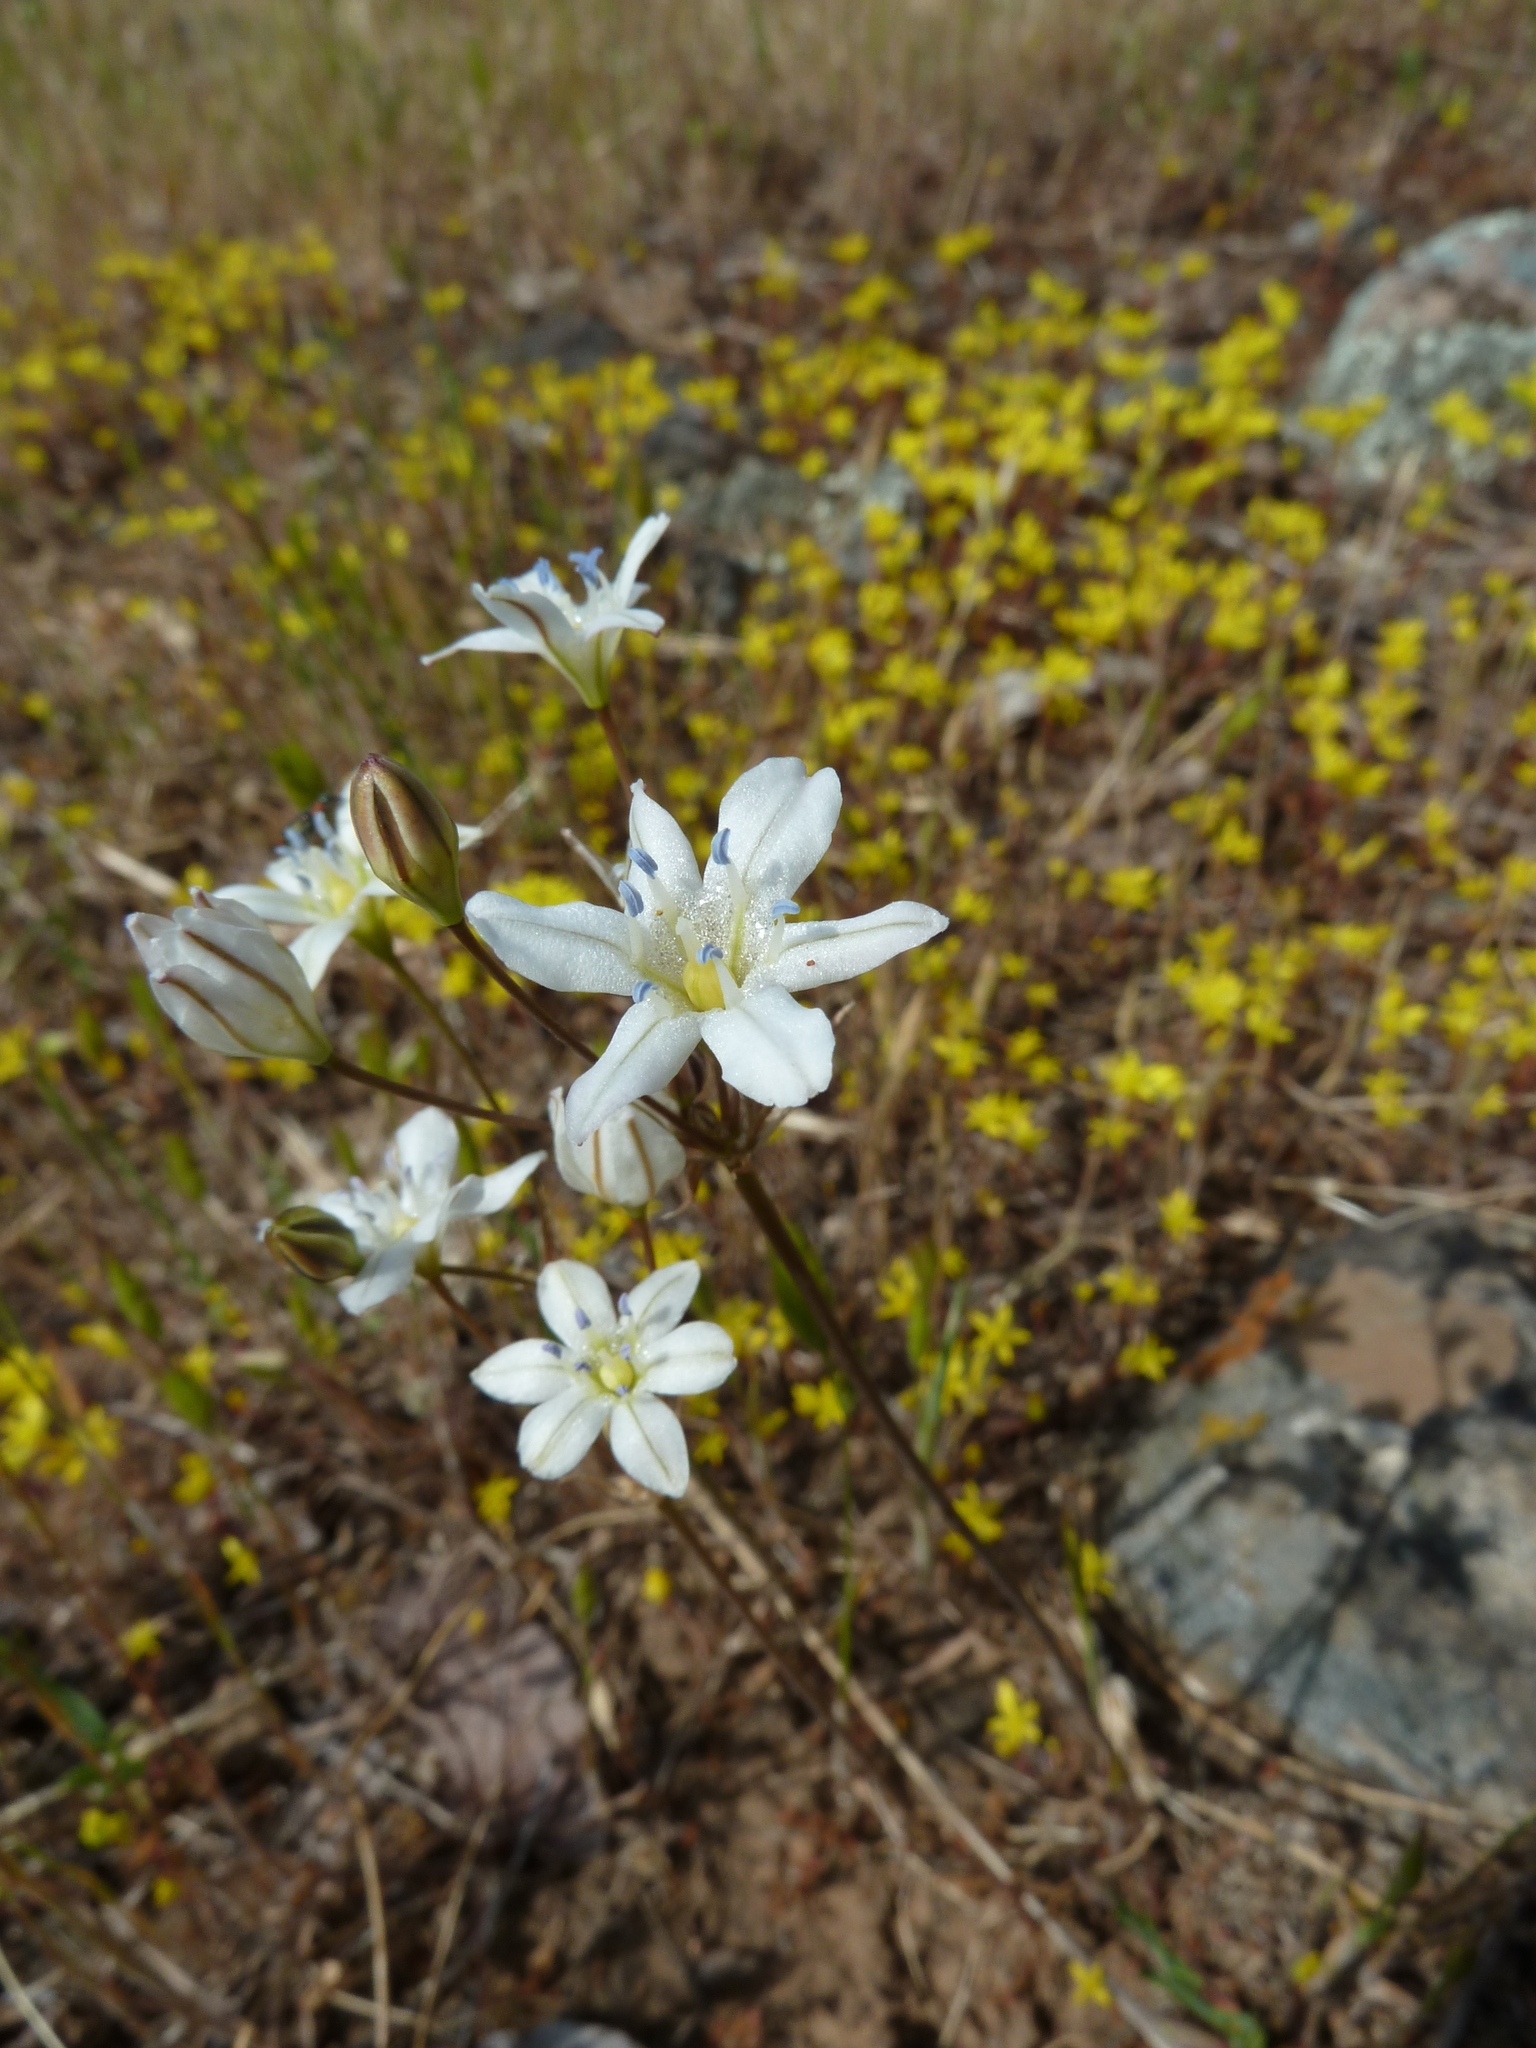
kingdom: Plantae
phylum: Tracheophyta
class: Liliopsida
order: Asparagales
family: Asparagaceae
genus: Triteleia
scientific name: Triteleia lilacina
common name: Lilac-flower wild hyacinth
